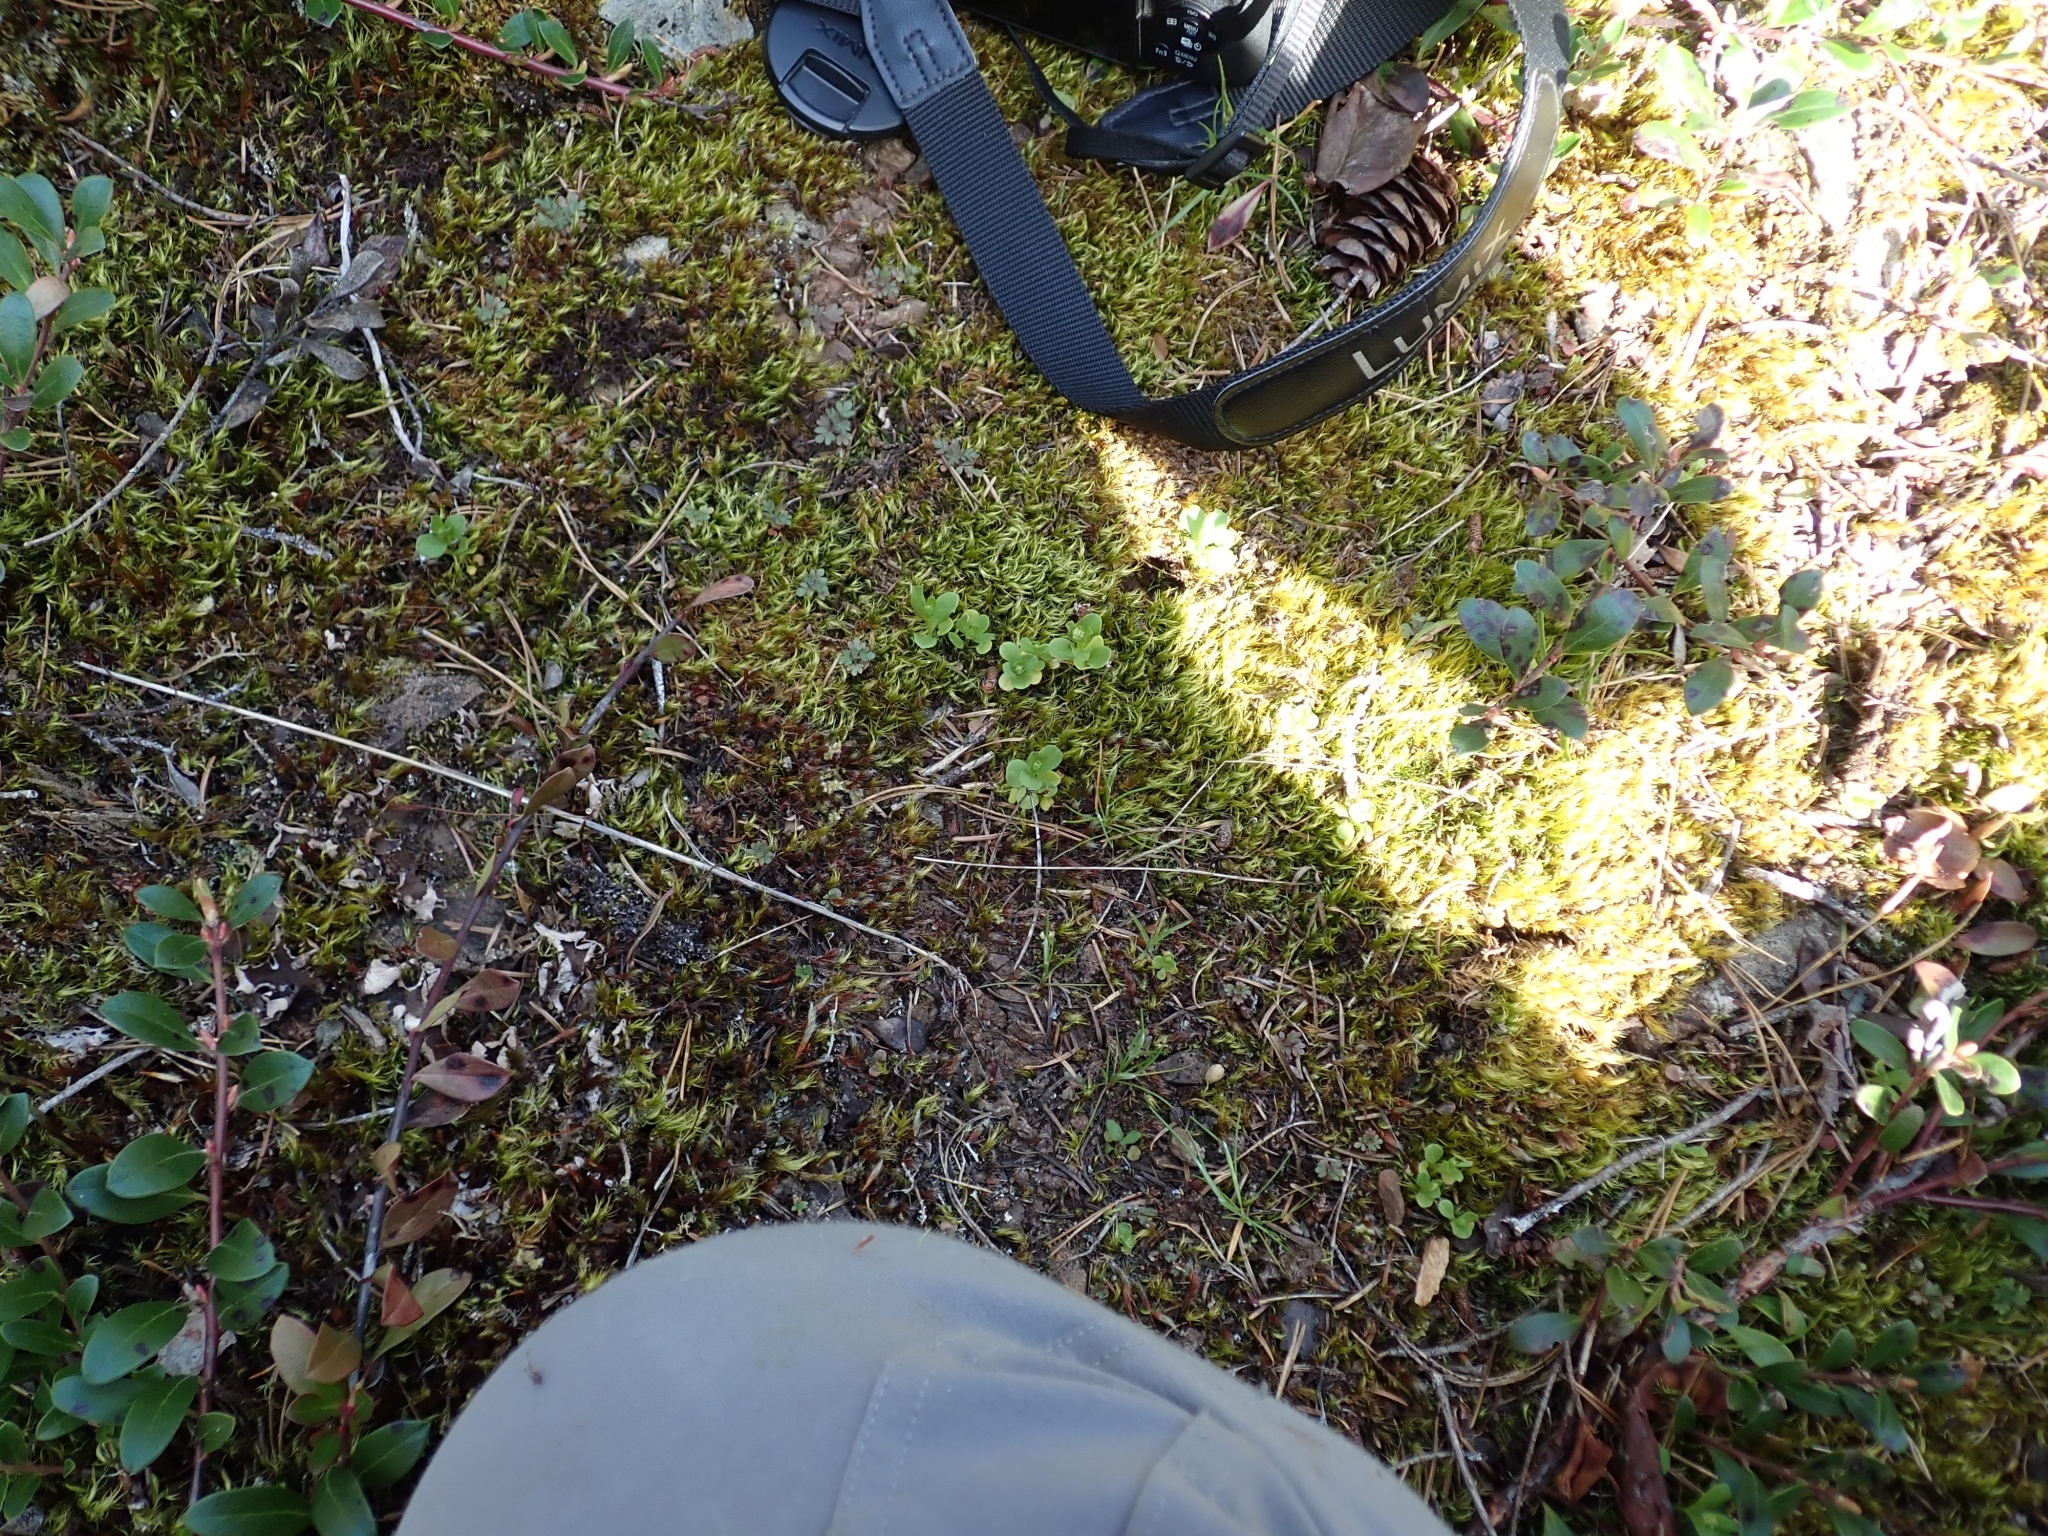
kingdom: Plantae
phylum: Tracheophyta
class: Magnoliopsida
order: Dipsacales
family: Caprifoliaceae
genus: Plectritis
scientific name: Plectritis congesta
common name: Pink plectritis
